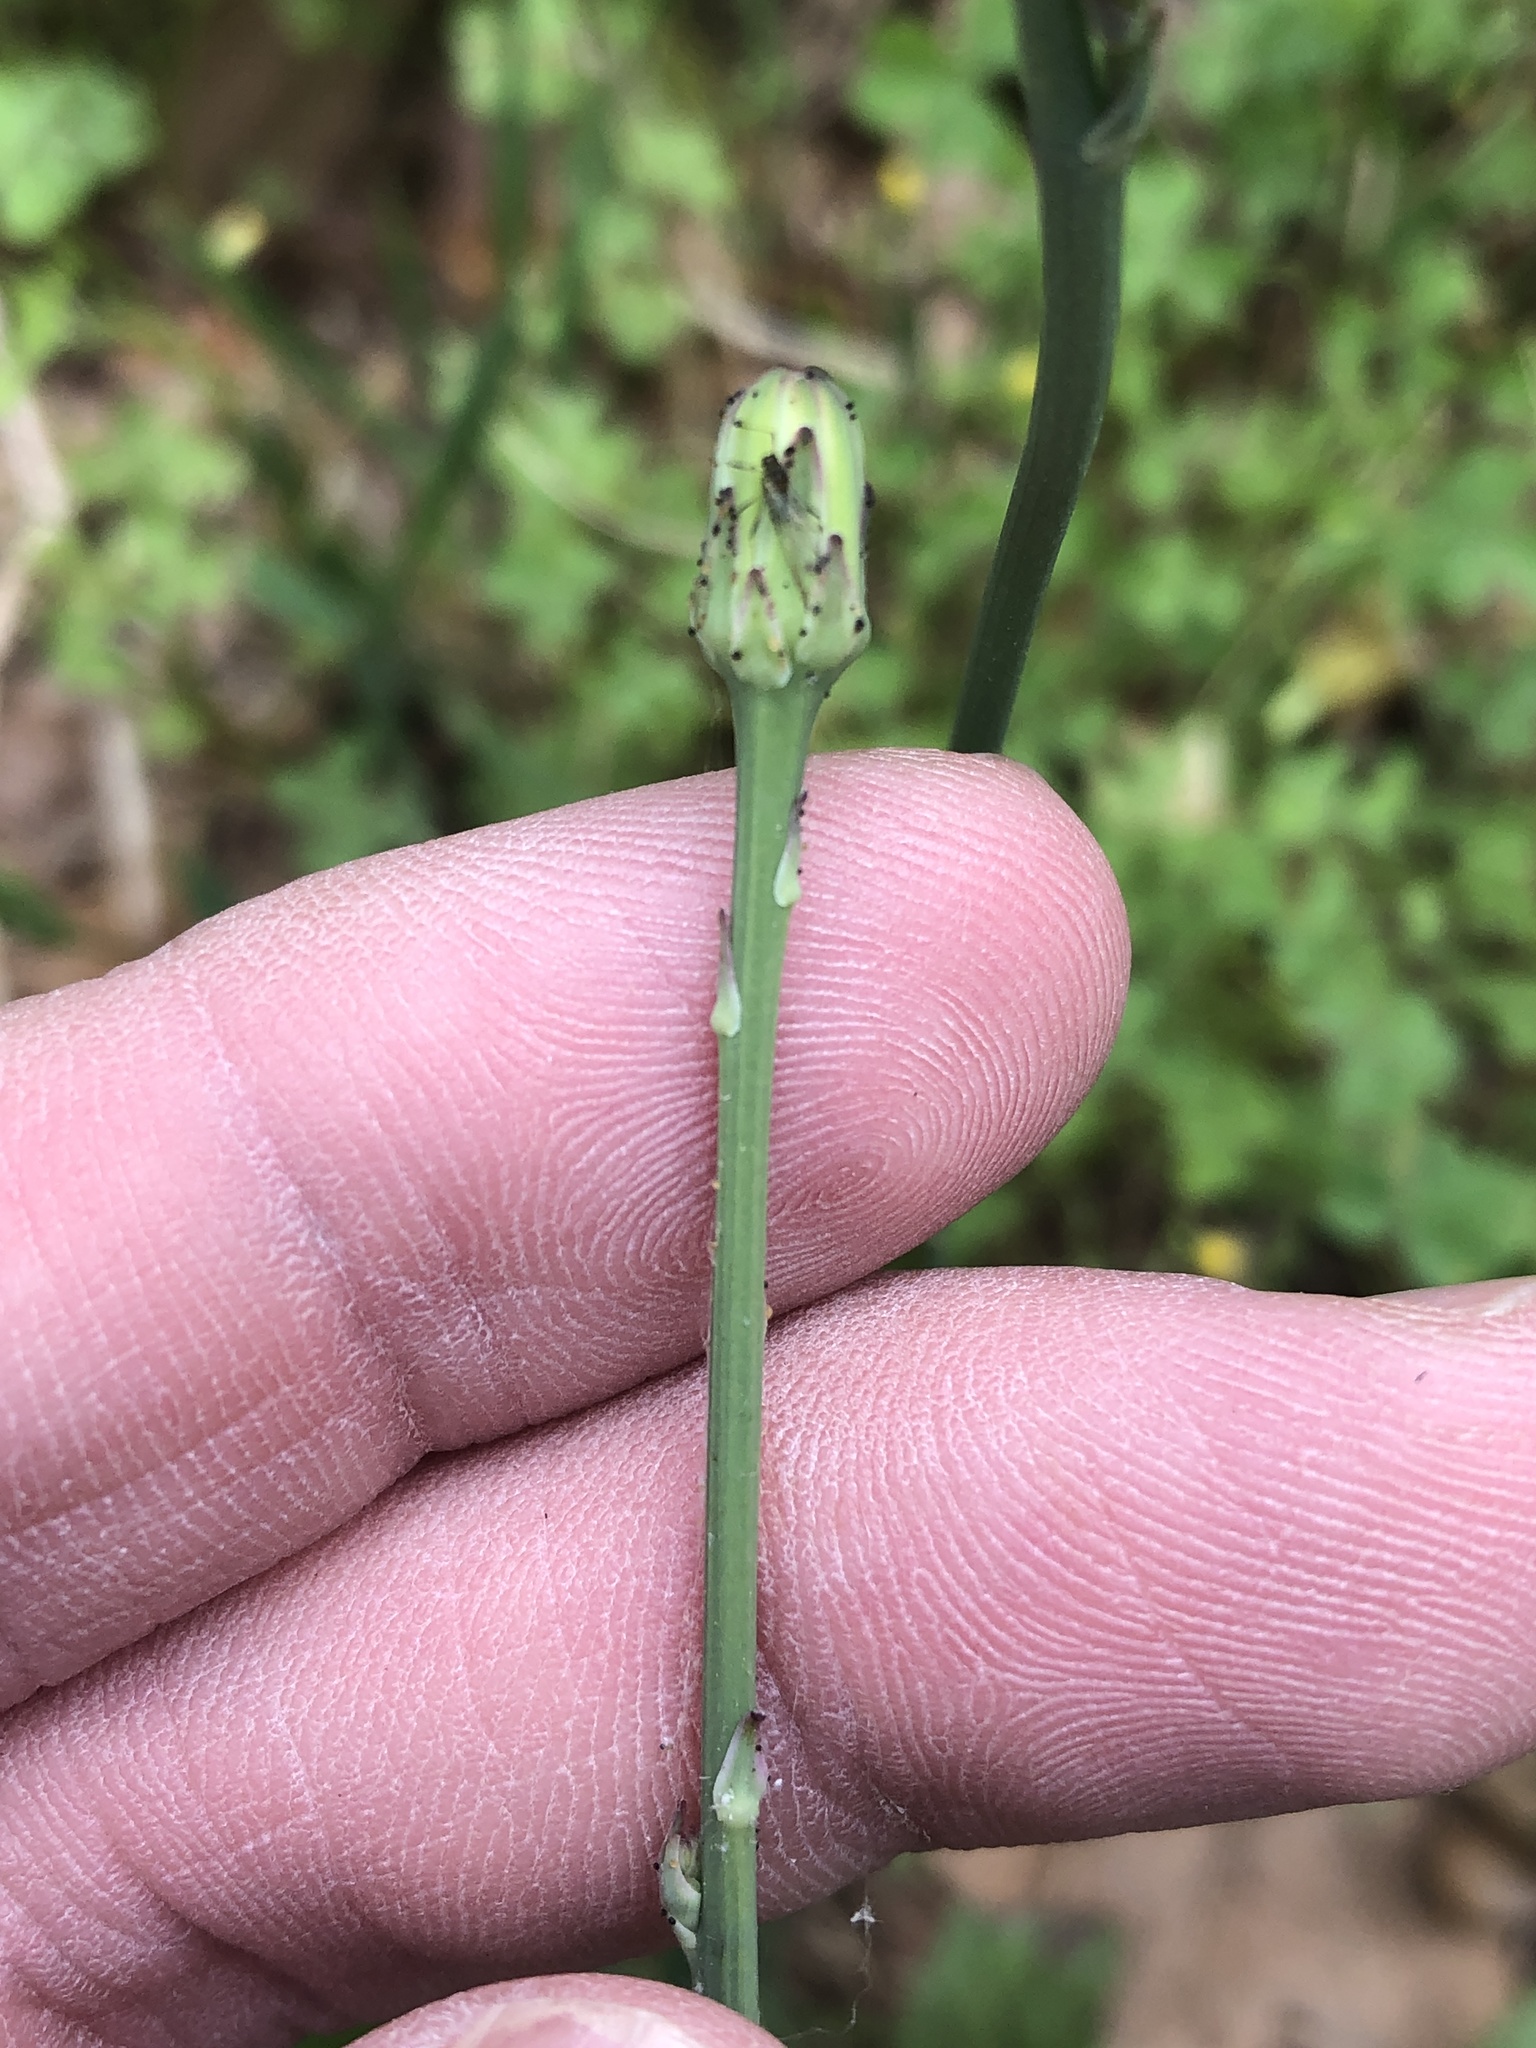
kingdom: Plantae
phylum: Tracheophyta
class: Magnoliopsida
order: Asterales
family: Asteraceae
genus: Hypochaeris
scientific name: Hypochaeris glabra
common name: Smooth catsear
